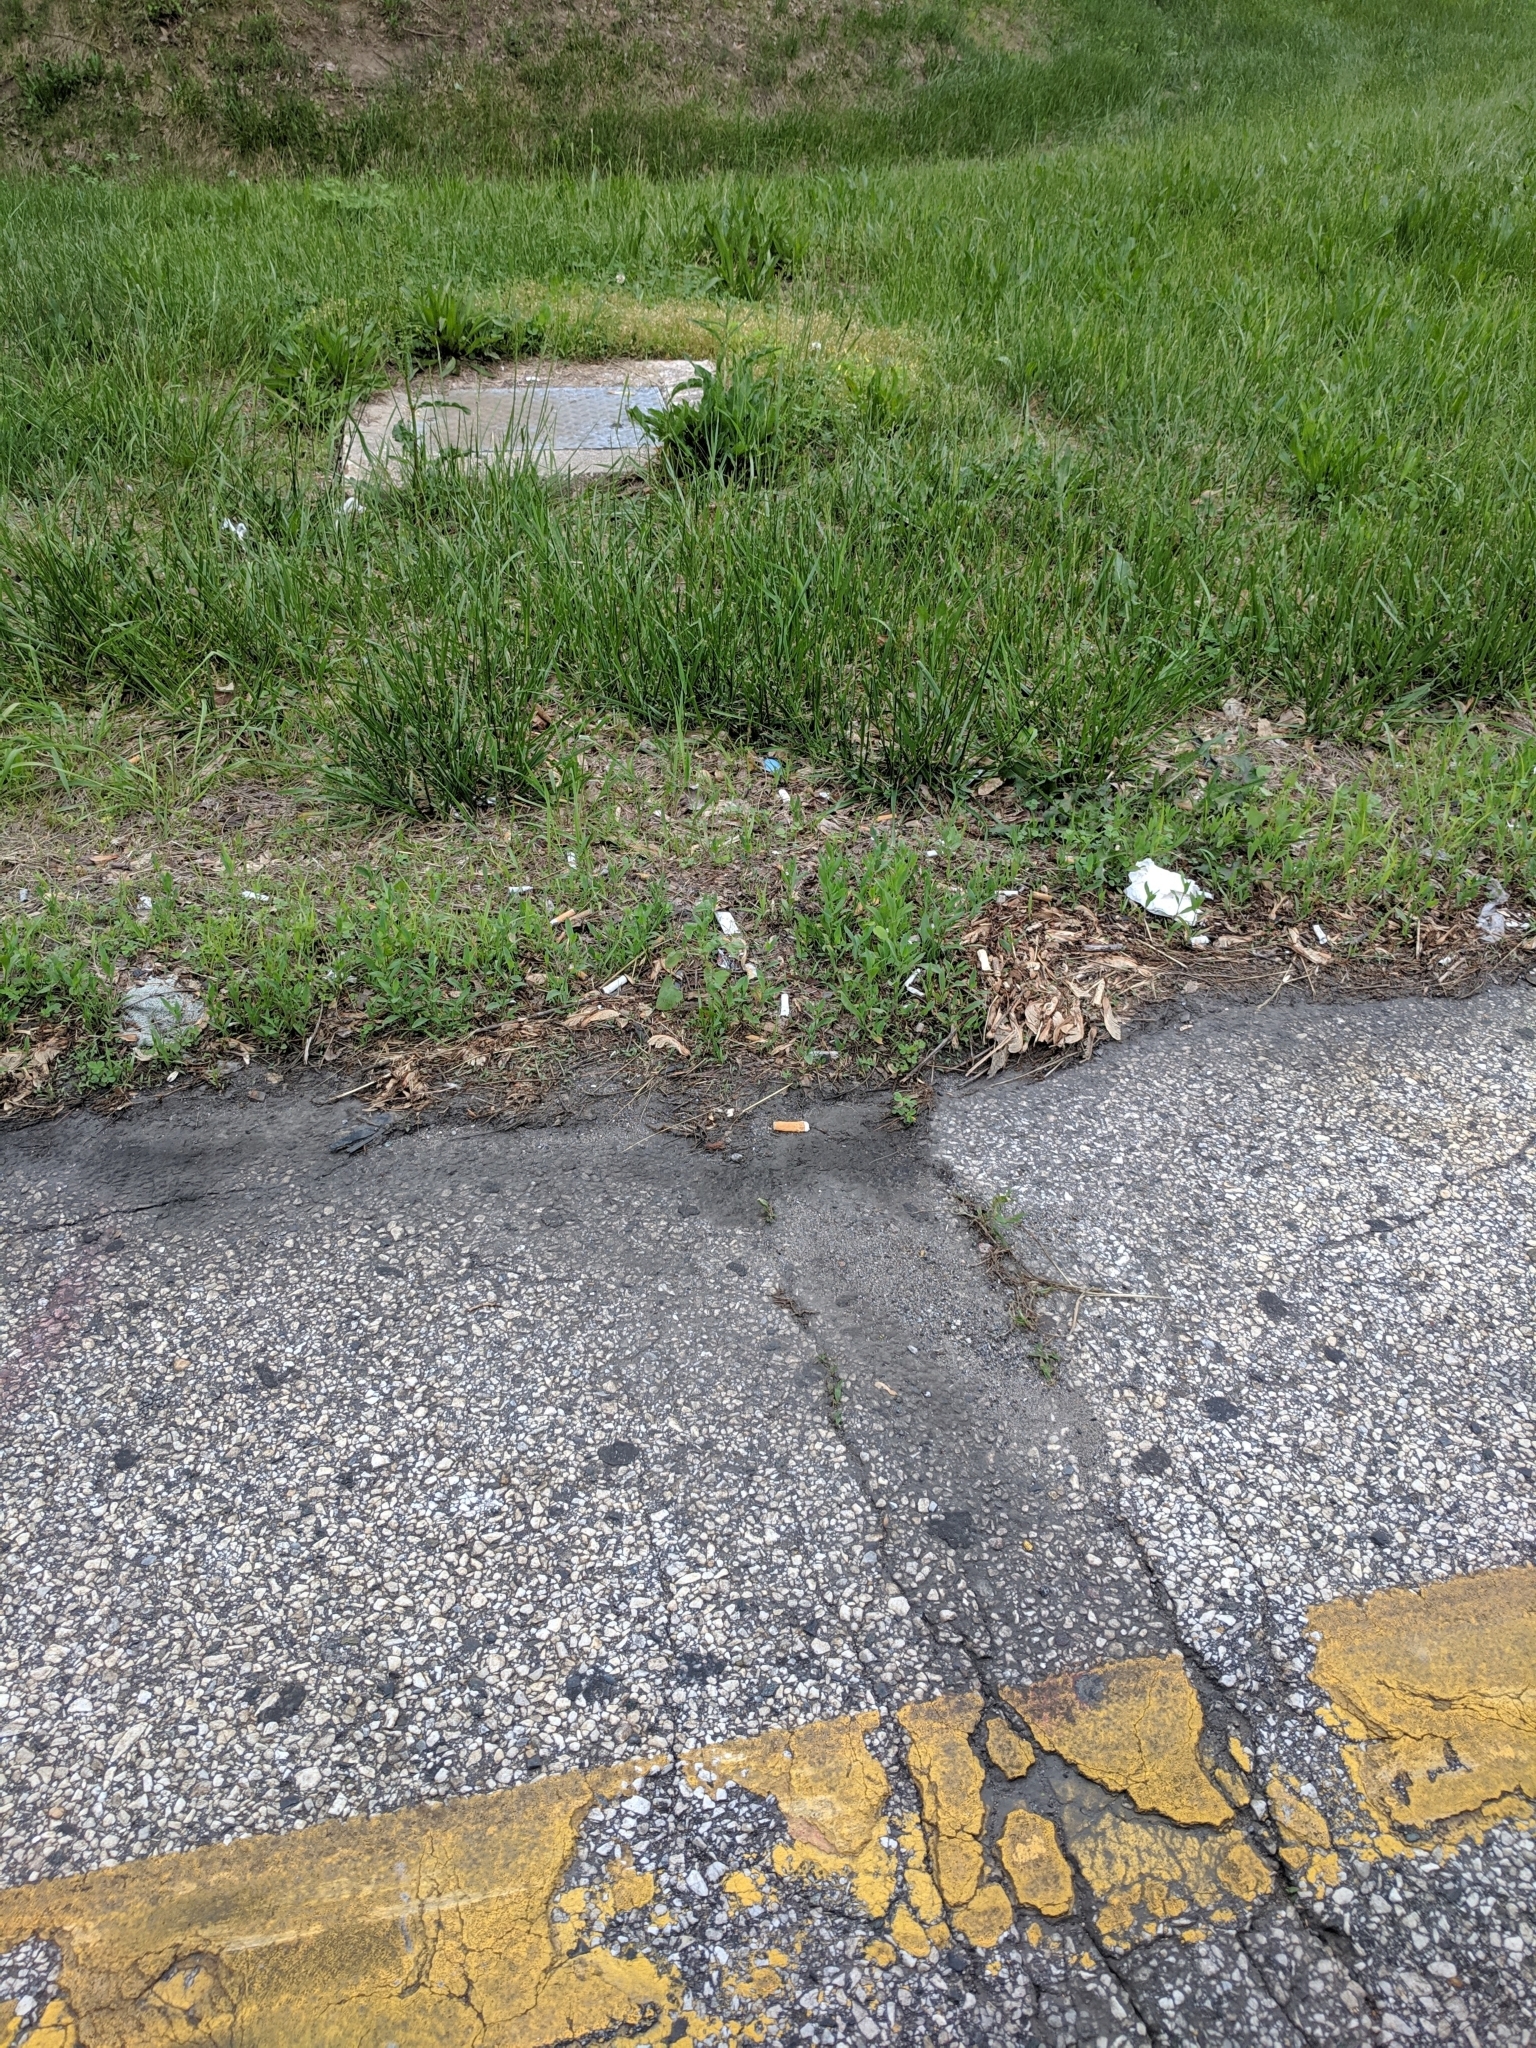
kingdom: Plantae
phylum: Tracheophyta
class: Magnoliopsida
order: Asterales
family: Asteraceae
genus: Cichorium
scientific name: Cichorium intybus
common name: Chicory
